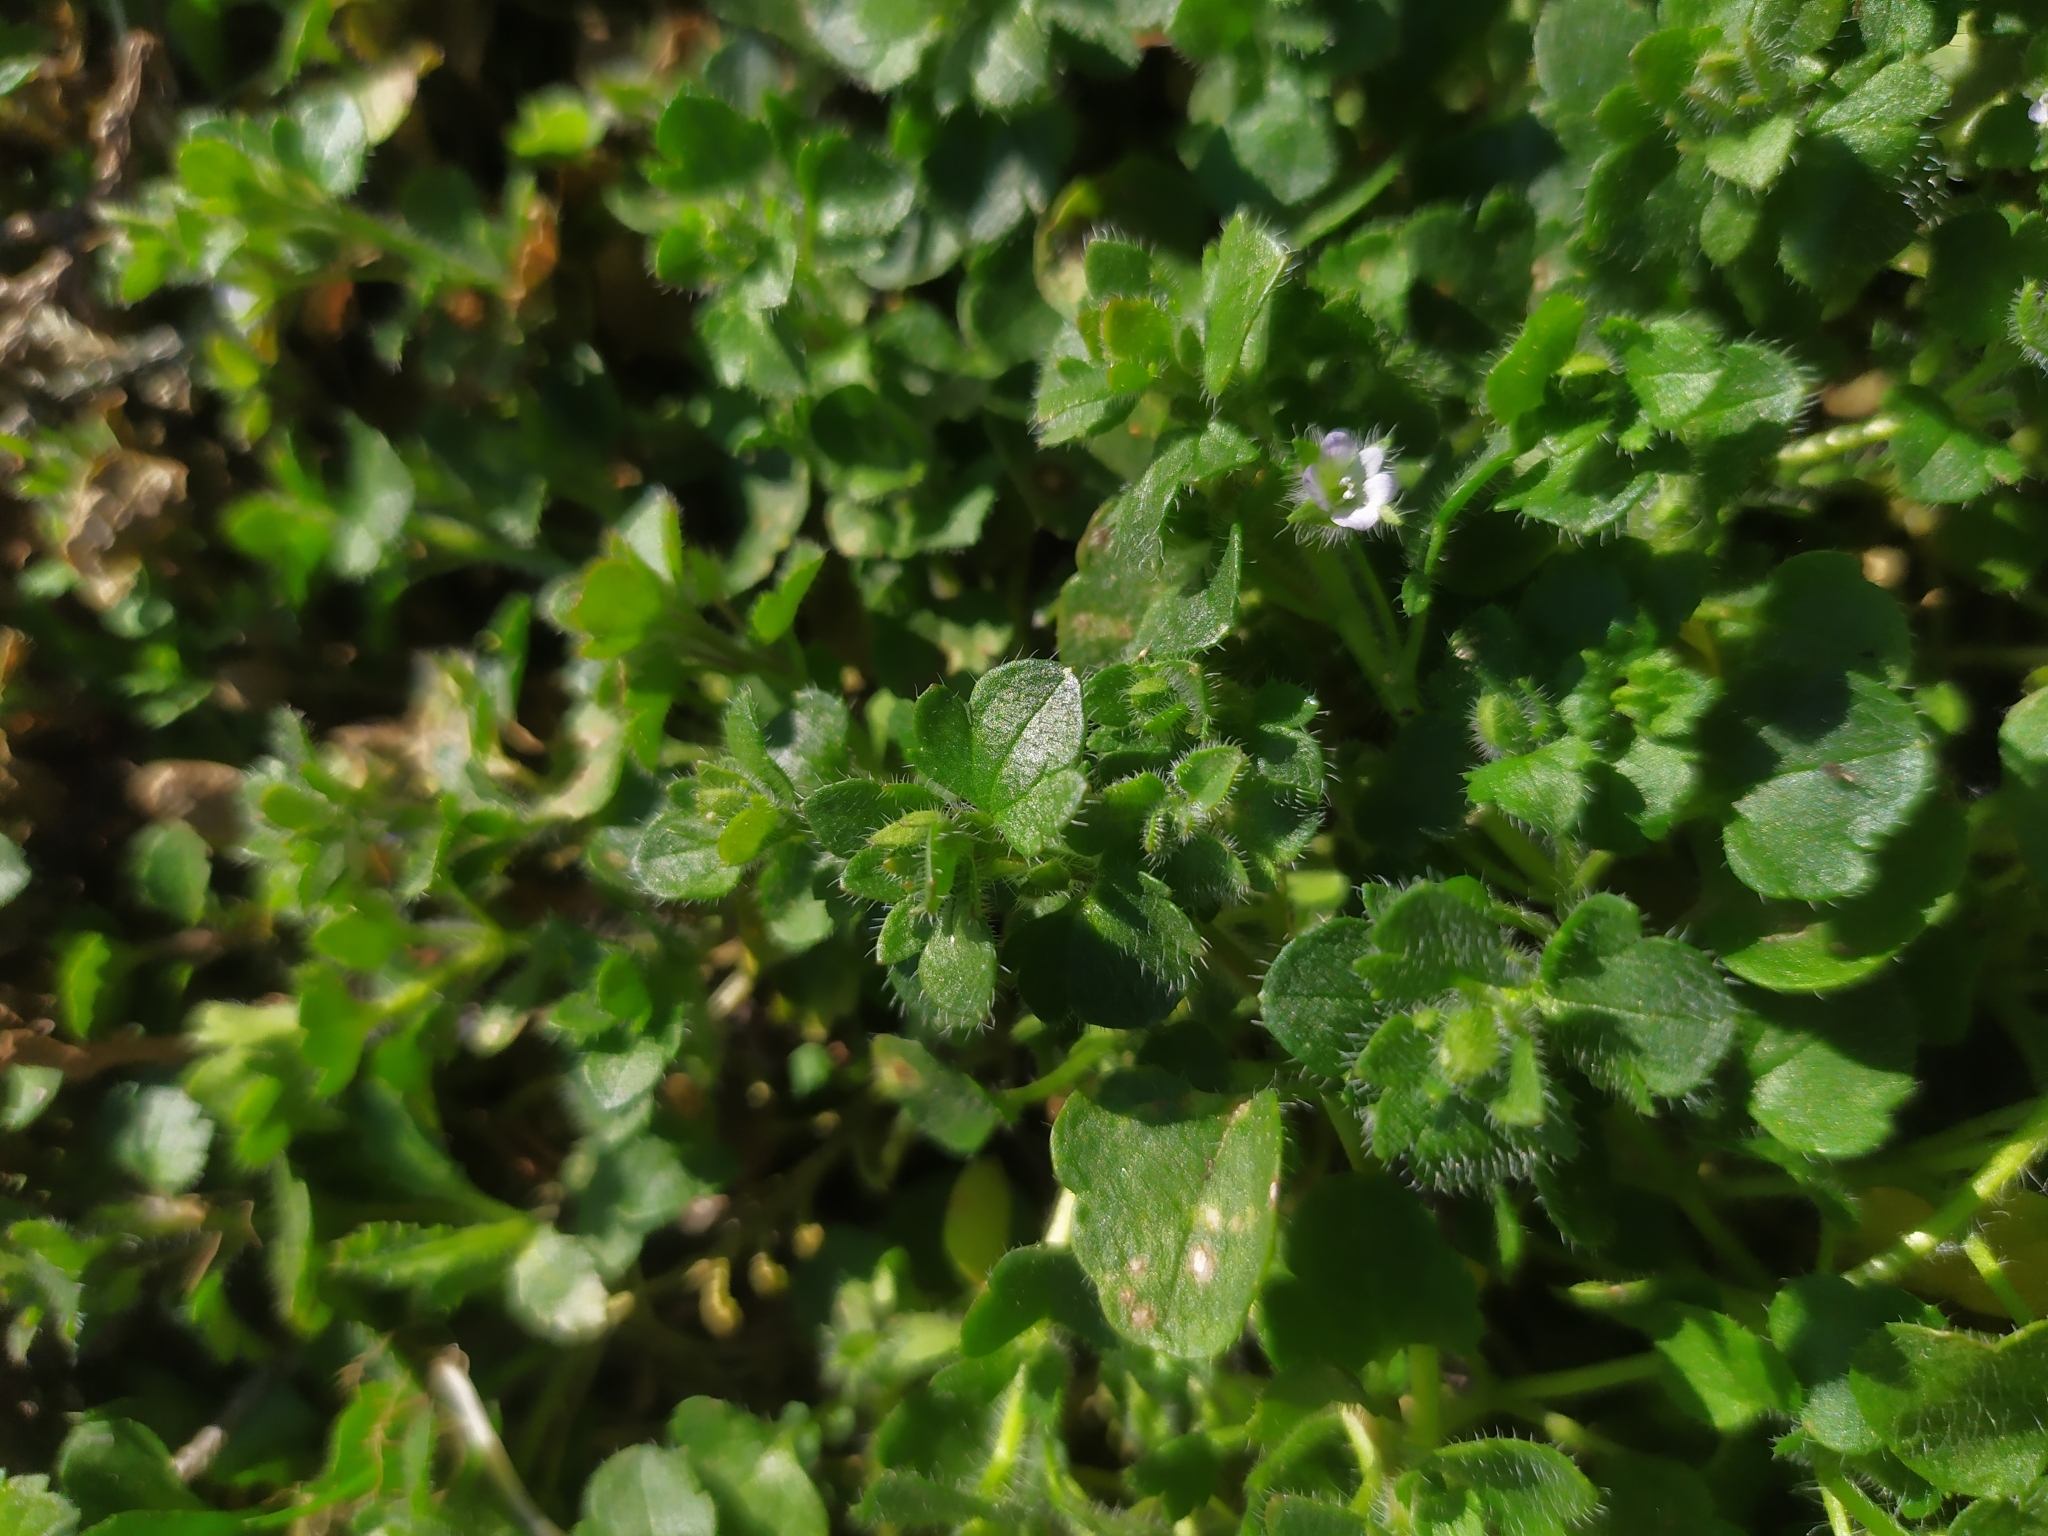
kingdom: Plantae
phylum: Tracheophyta
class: Magnoliopsida
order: Lamiales
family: Plantaginaceae
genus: Veronica
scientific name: Veronica sublobata
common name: False ivy-leaved speedwell
